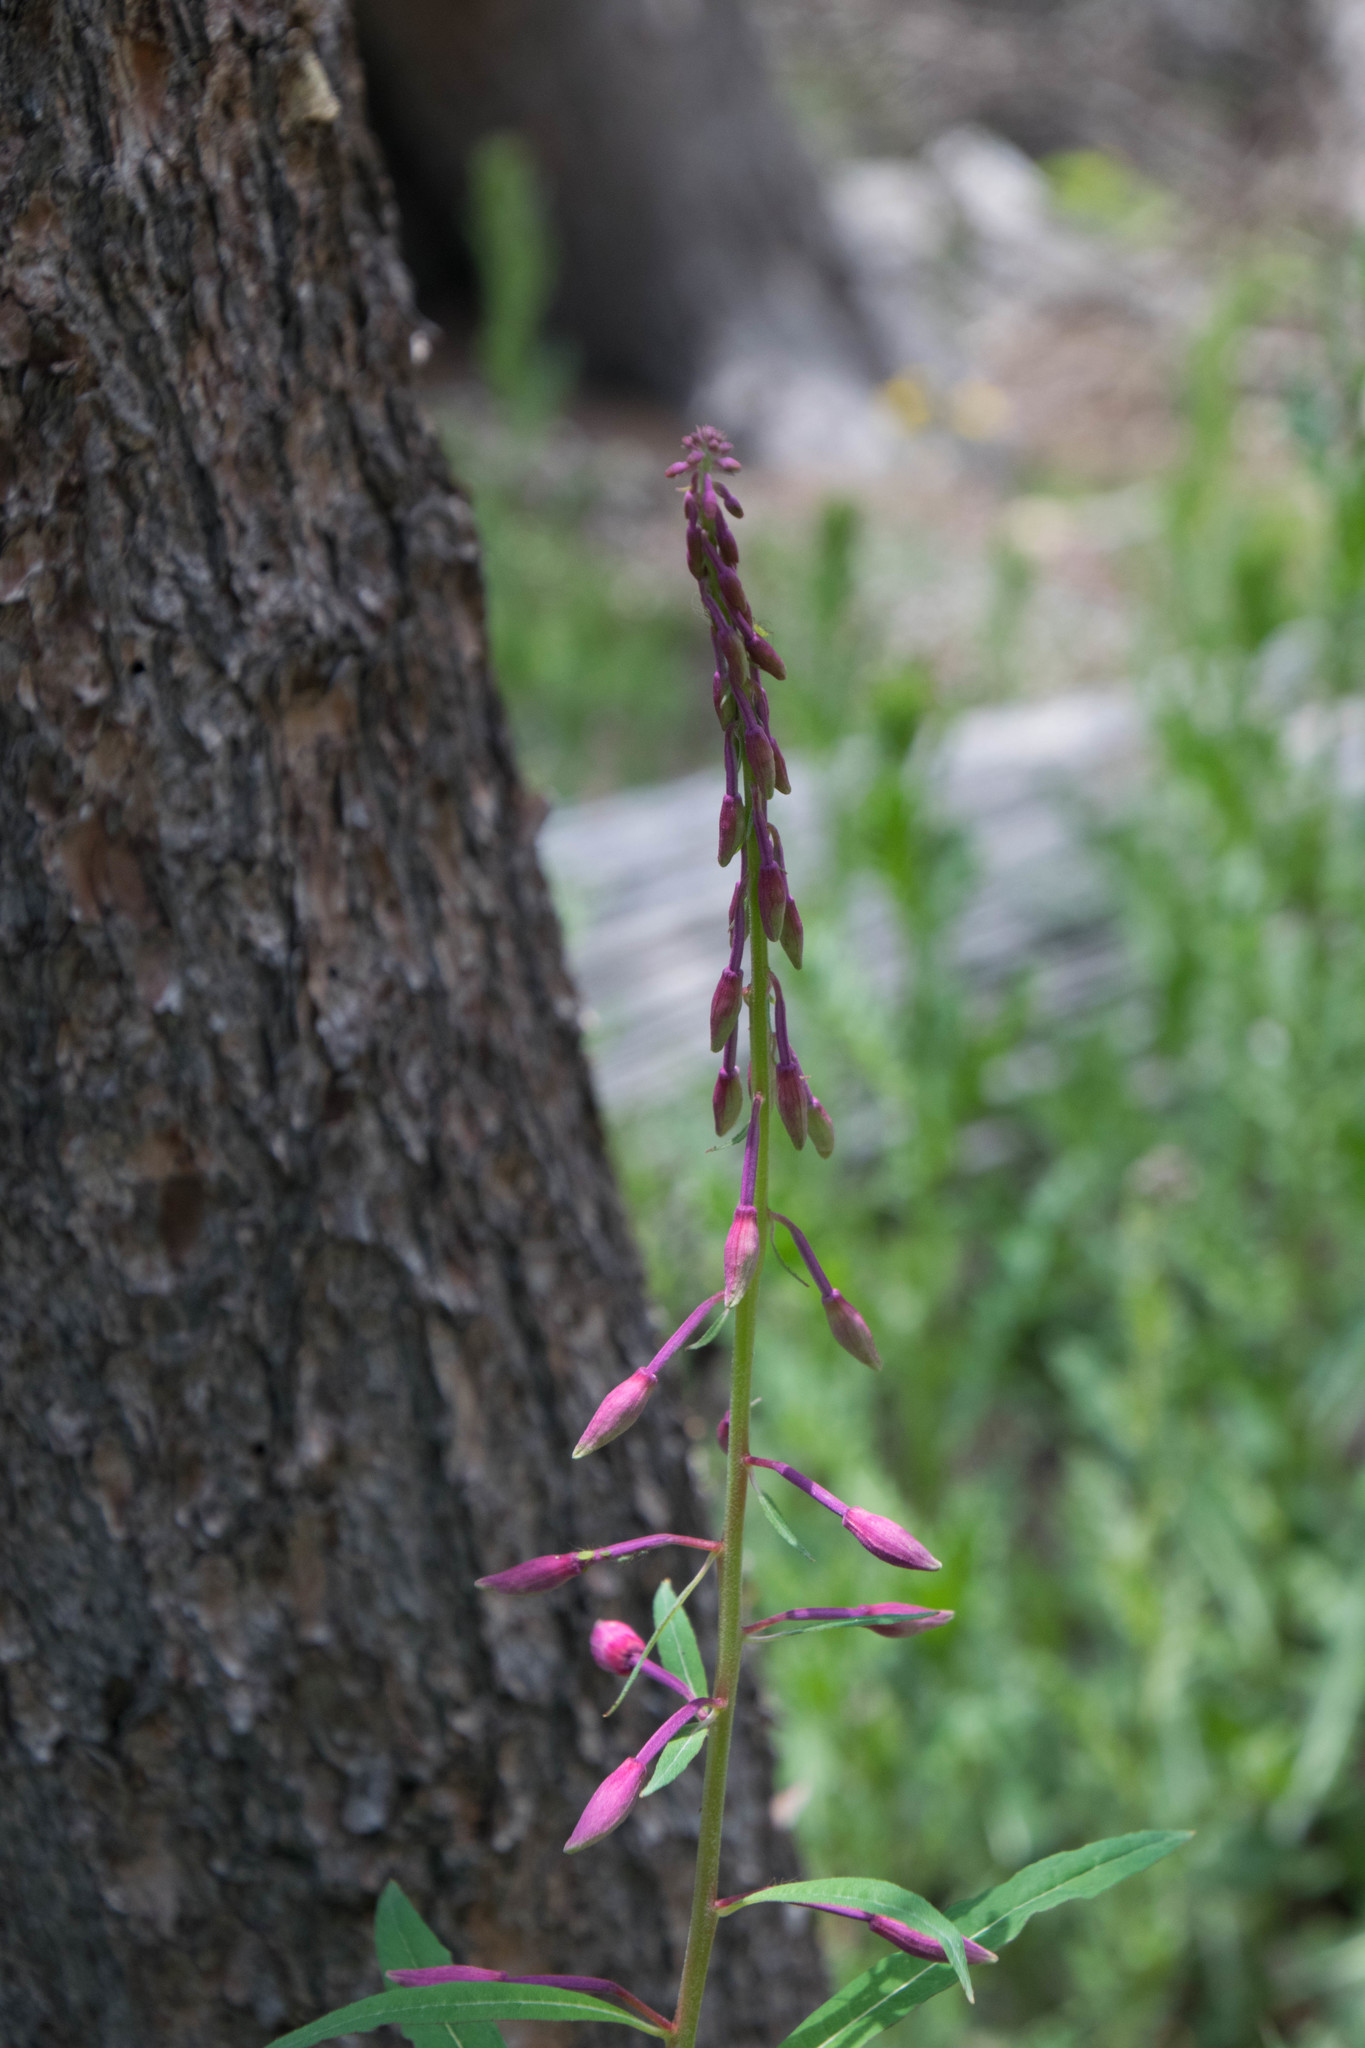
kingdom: Plantae
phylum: Tracheophyta
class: Magnoliopsida
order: Myrtales
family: Onagraceae
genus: Chamaenerion
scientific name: Chamaenerion angustifolium
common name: Fireweed
